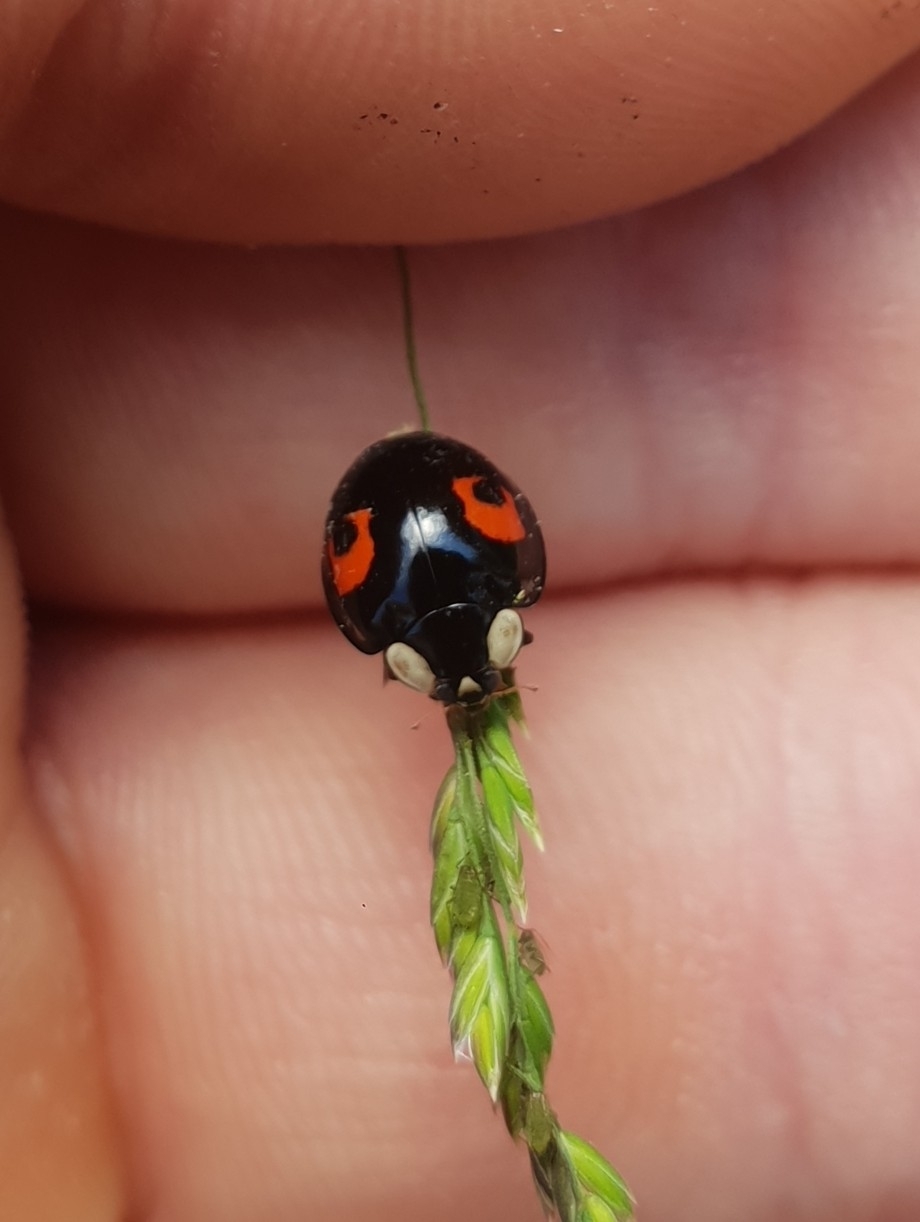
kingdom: Animalia
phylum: Arthropoda
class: Insecta
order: Coleoptera
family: Coccinellidae
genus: Harmonia
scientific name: Harmonia axyridis
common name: Harlequin ladybird
